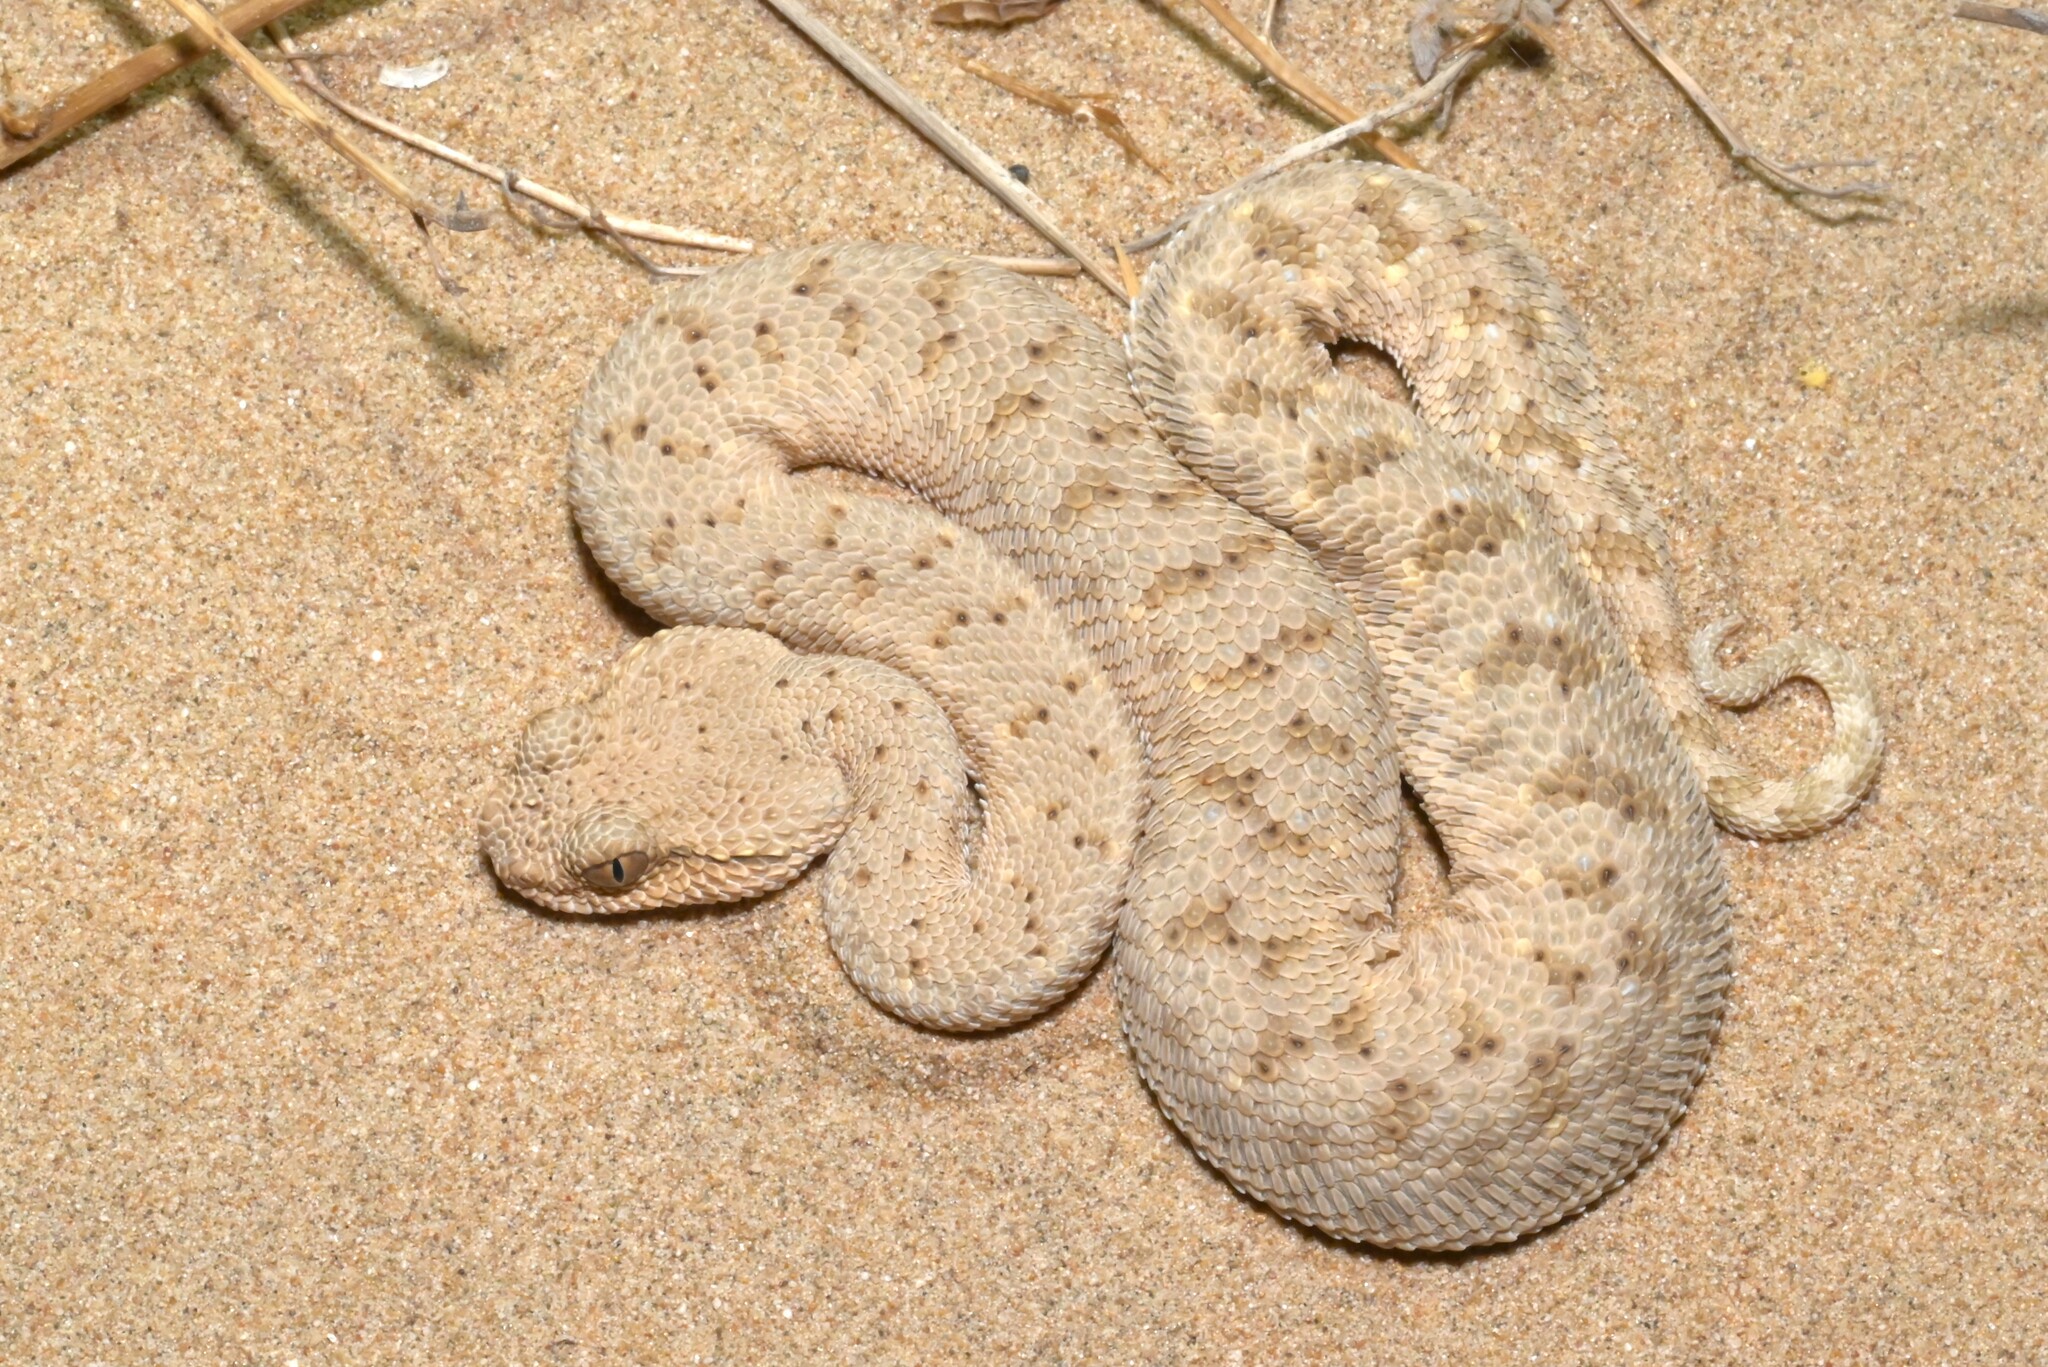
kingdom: Animalia
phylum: Chordata
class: Squamata
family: Viperidae
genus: Cerastes
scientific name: Cerastes gasperettii
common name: Arabian horned viper
